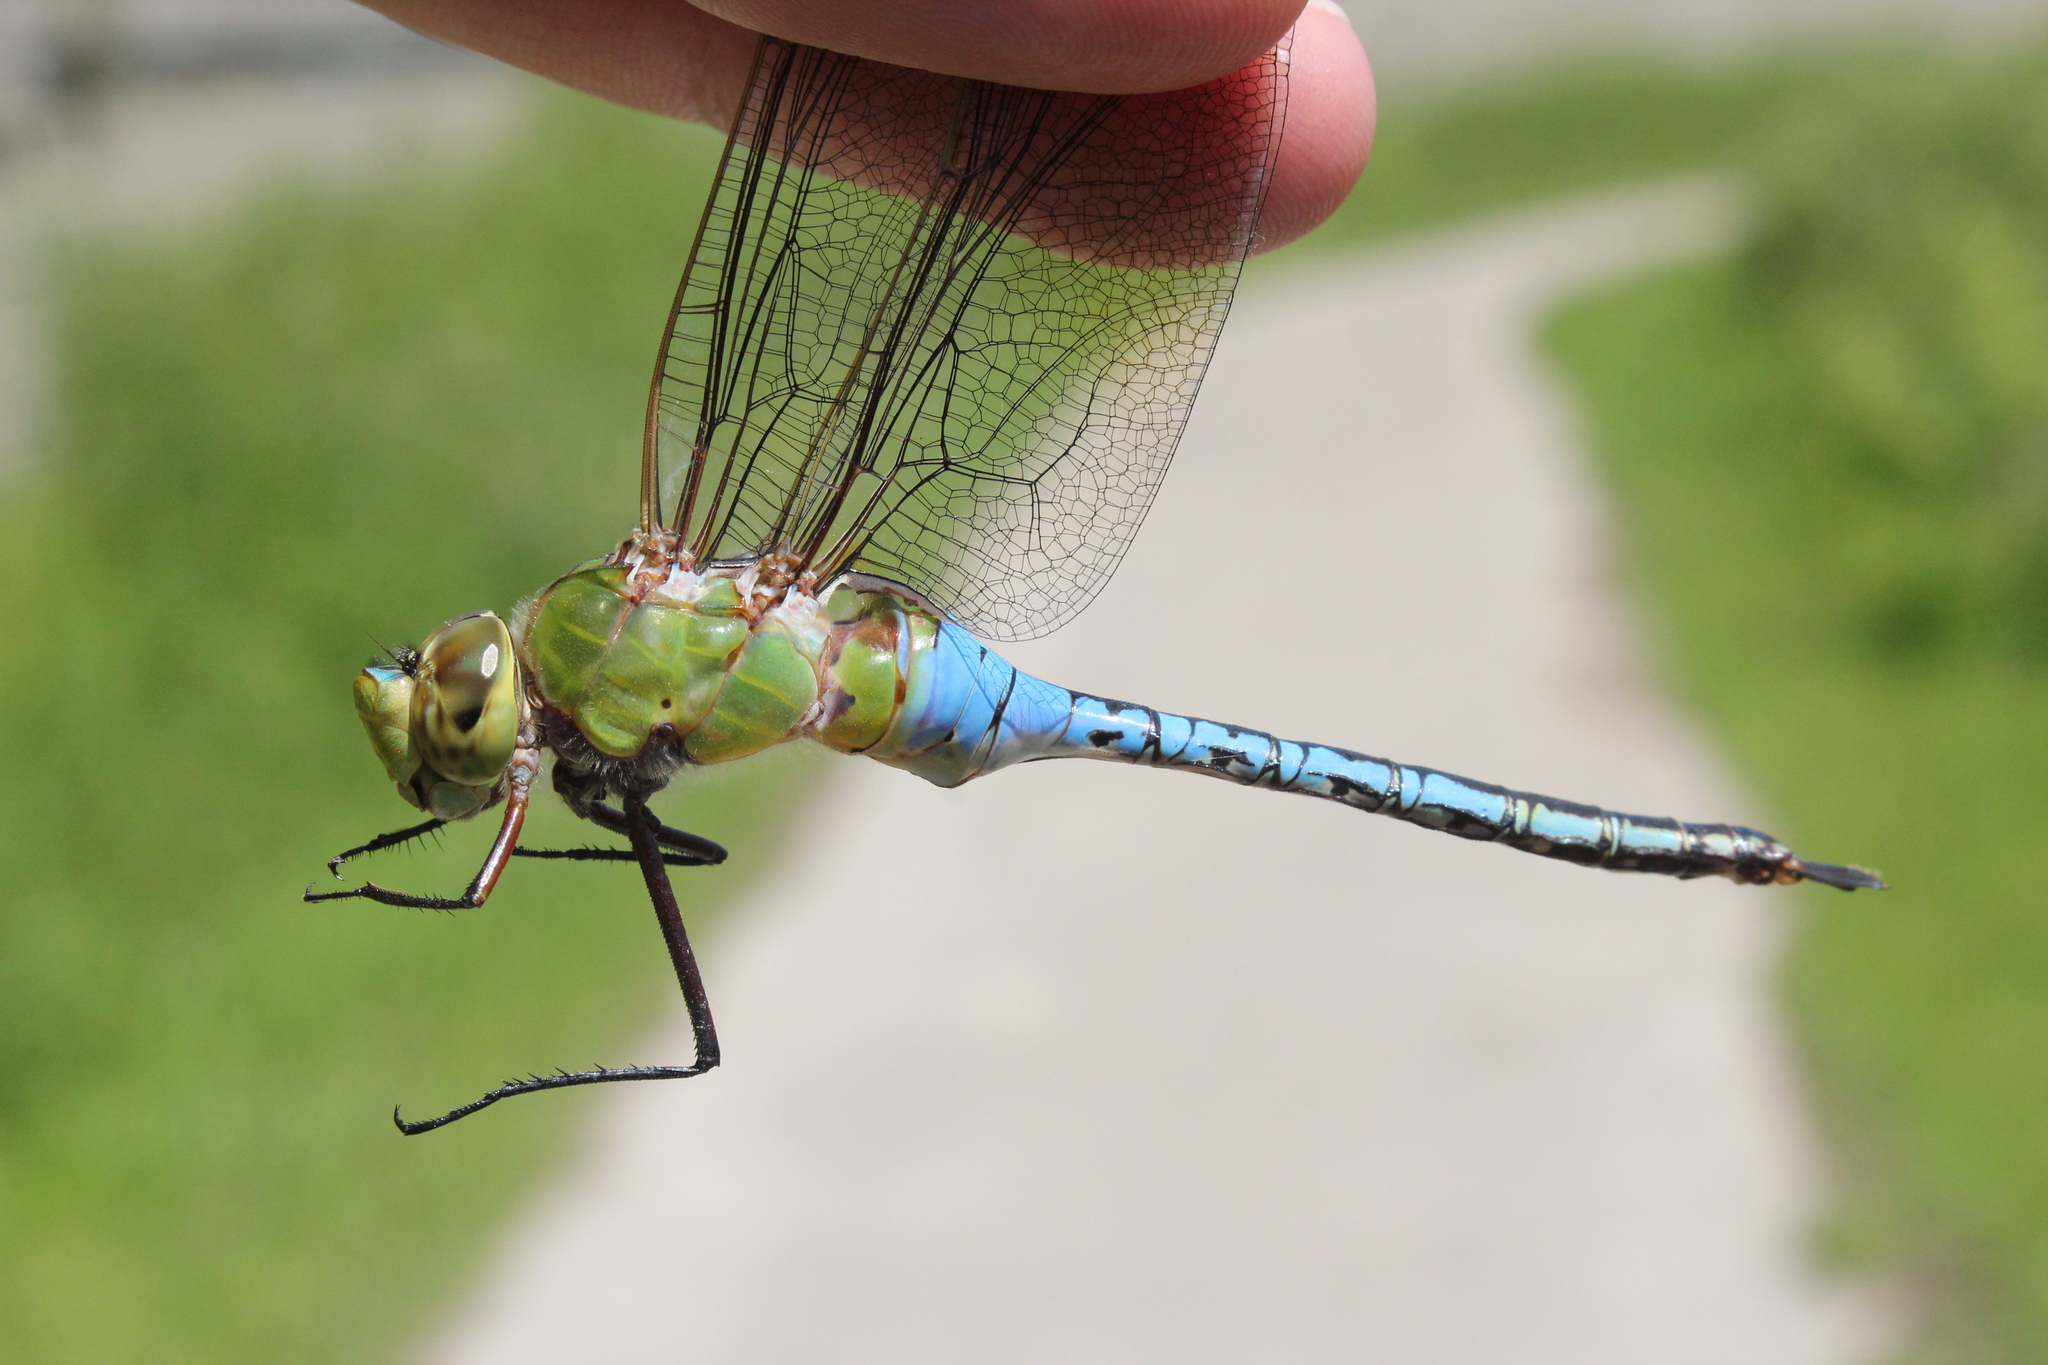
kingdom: Animalia
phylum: Arthropoda
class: Insecta
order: Odonata
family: Aeshnidae
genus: Anax
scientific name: Anax junius
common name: Common green darner
